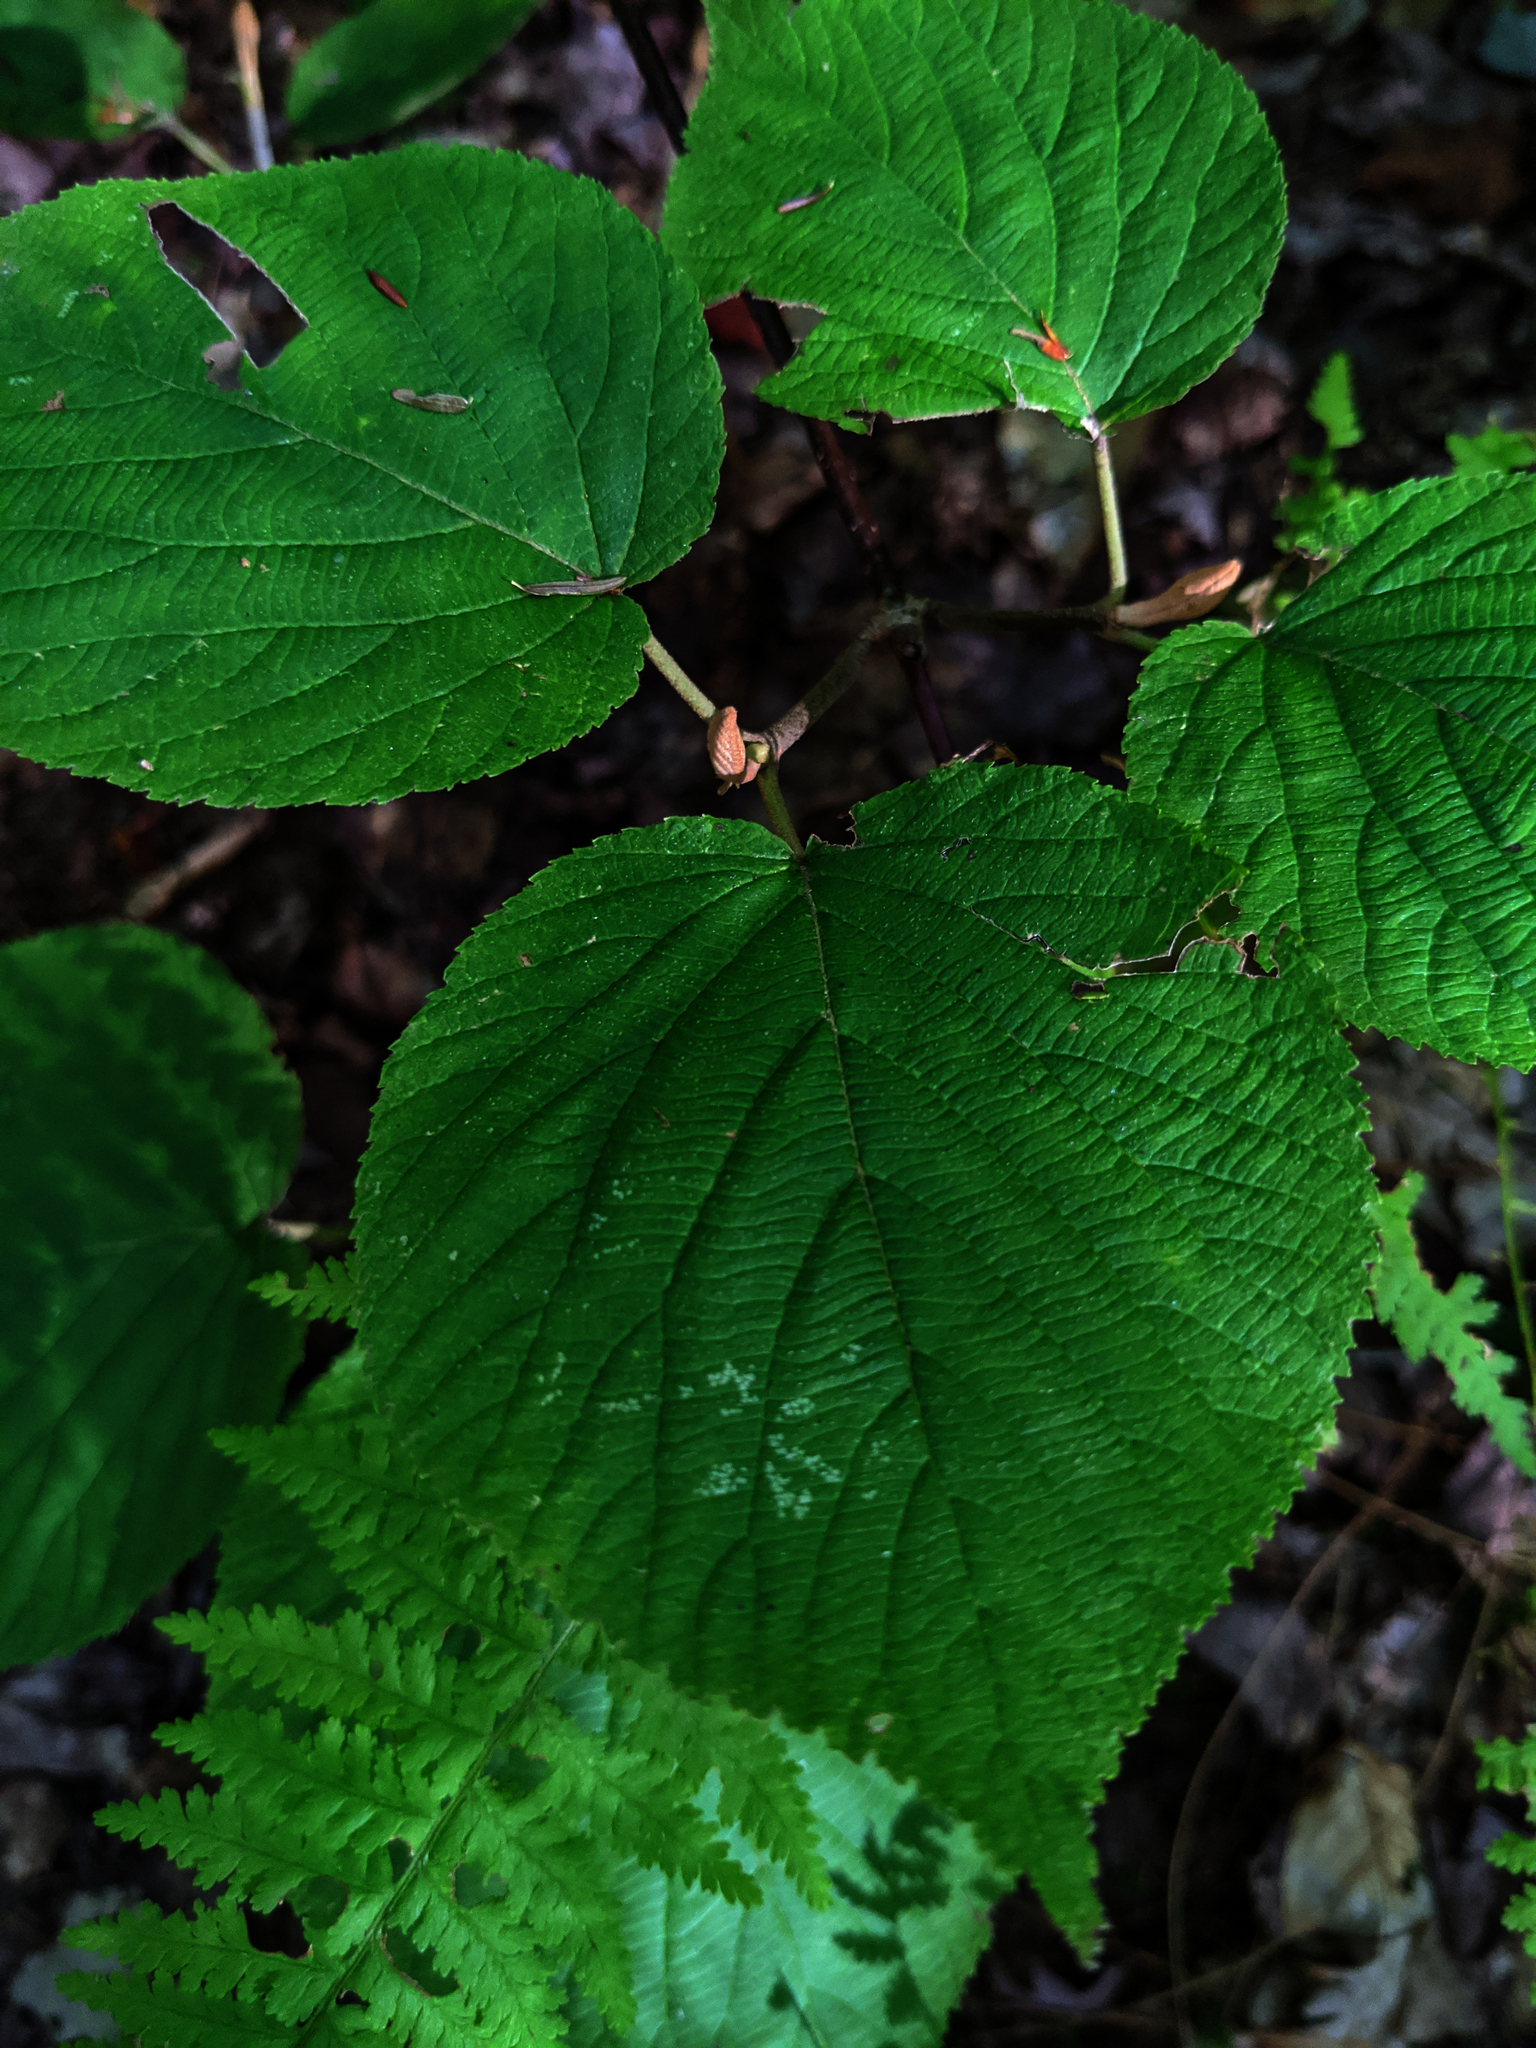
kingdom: Plantae
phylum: Tracheophyta
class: Magnoliopsida
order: Dipsacales
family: Viburnaceae
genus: Viburnum
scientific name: Viburnum lantanoides
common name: Hobblebush
